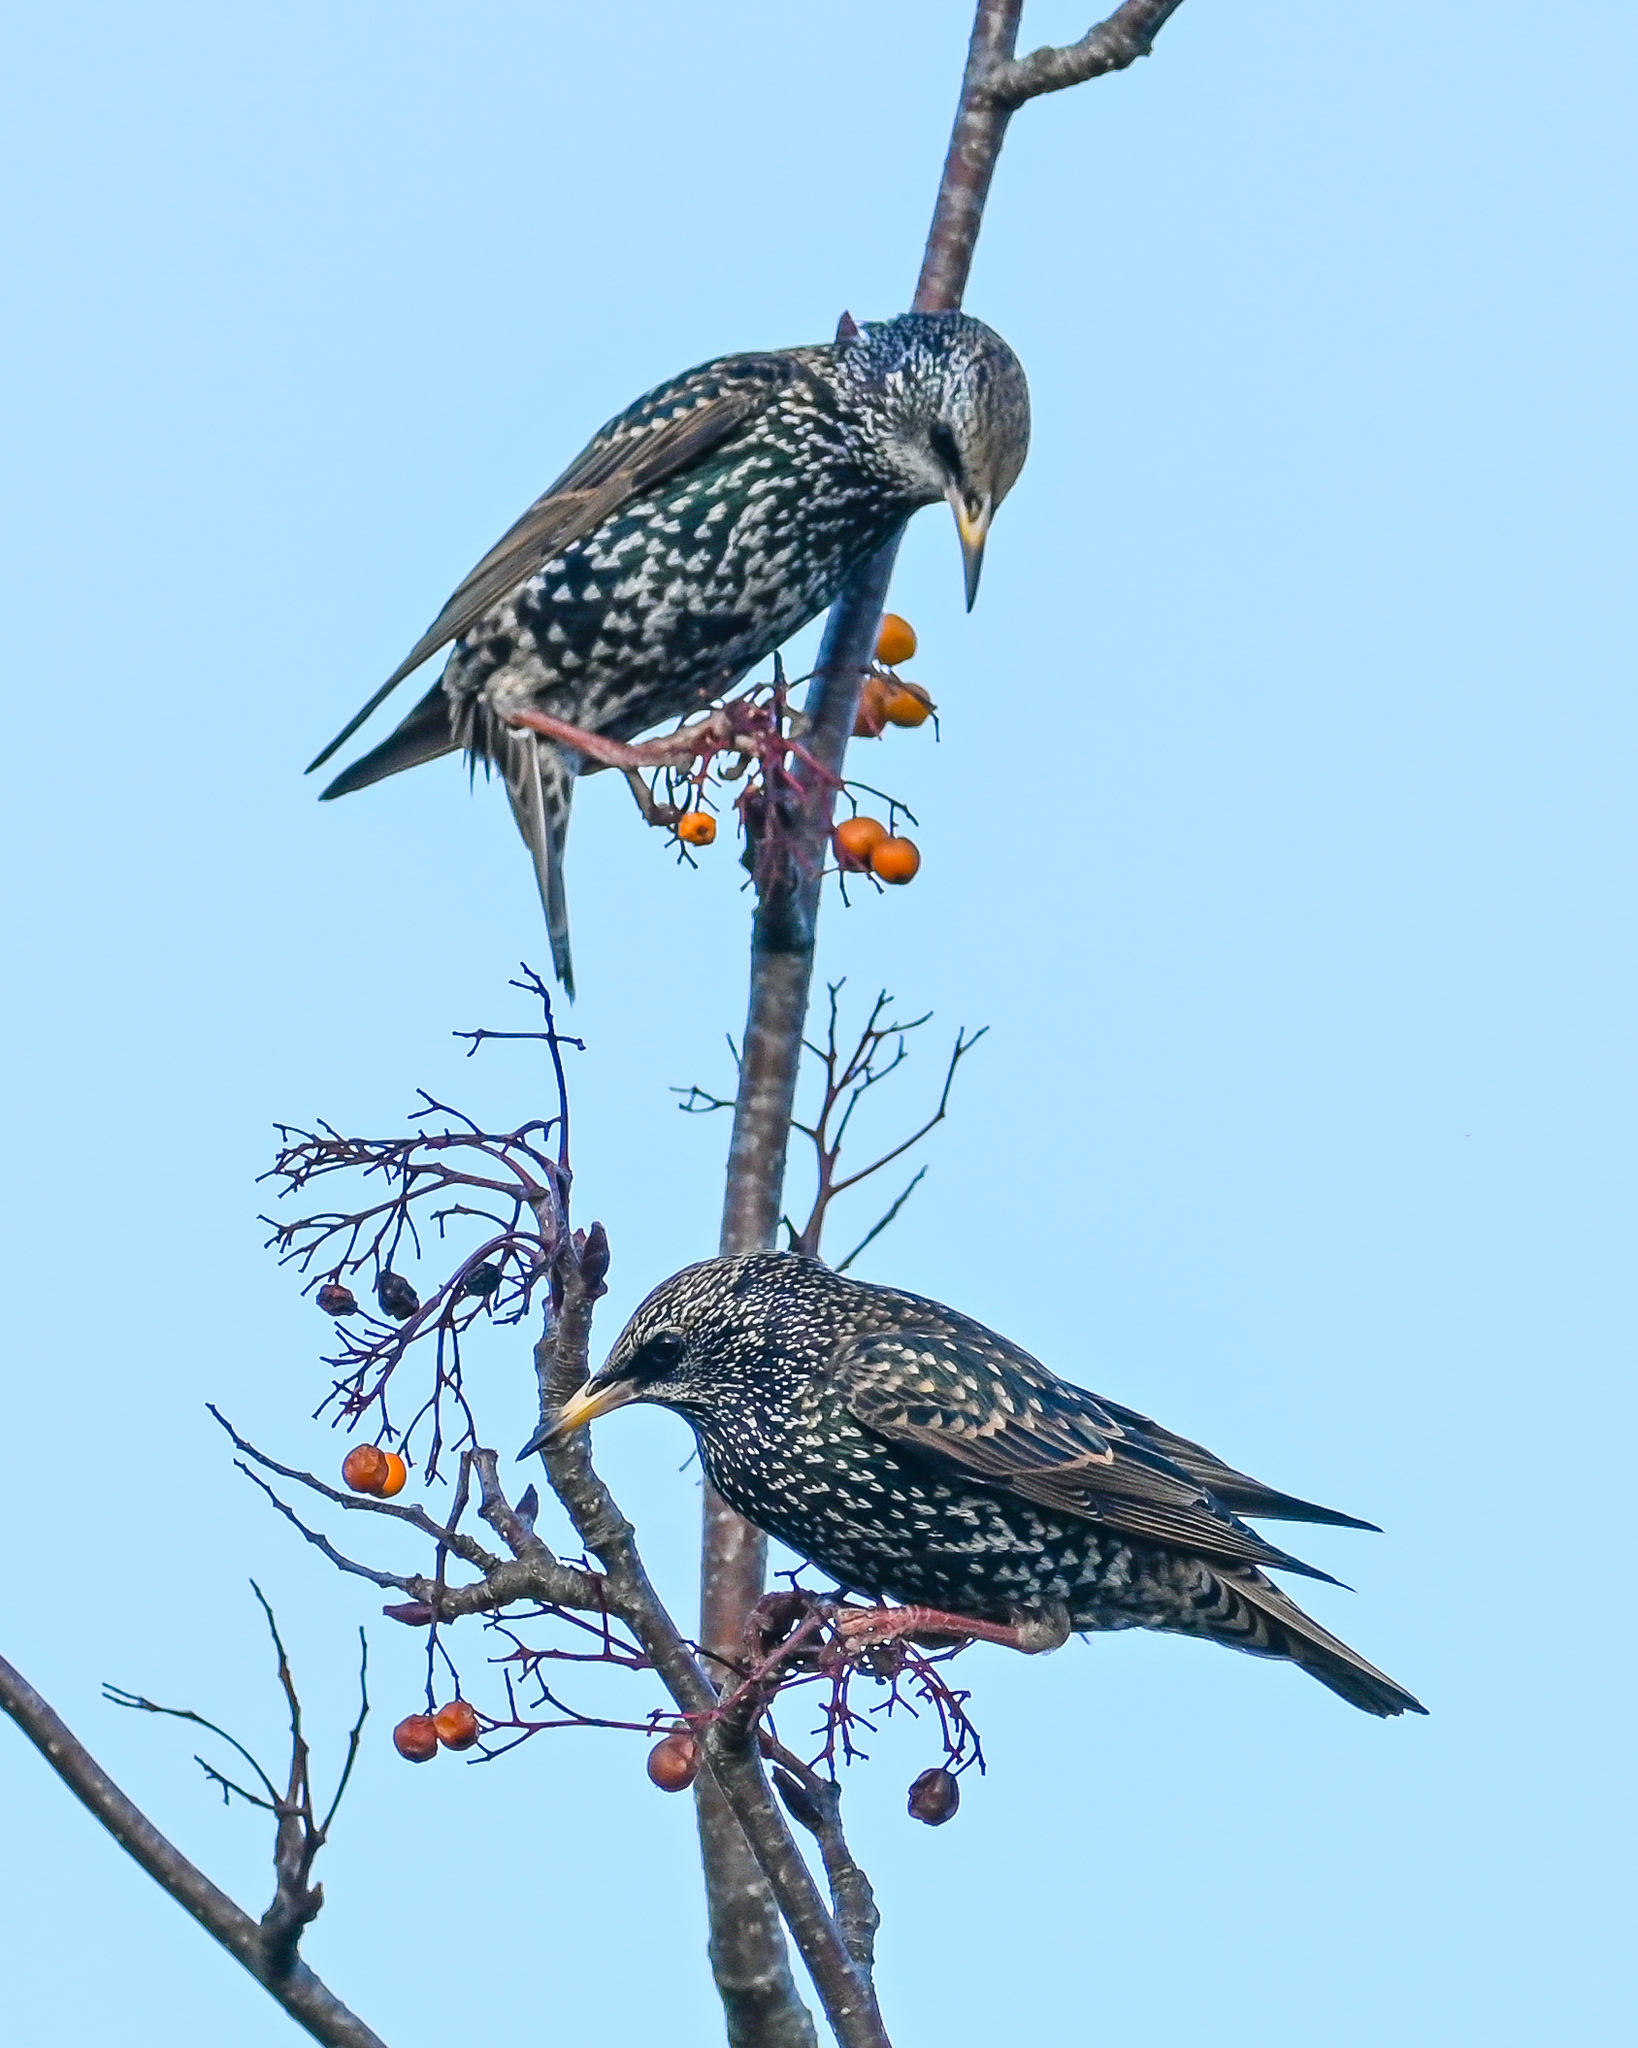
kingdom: Animalia
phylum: Chordata
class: Aves
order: Passeriformes
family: Sturnidae
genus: Sturnus
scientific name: Sturnus vulgaris
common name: Common starling
